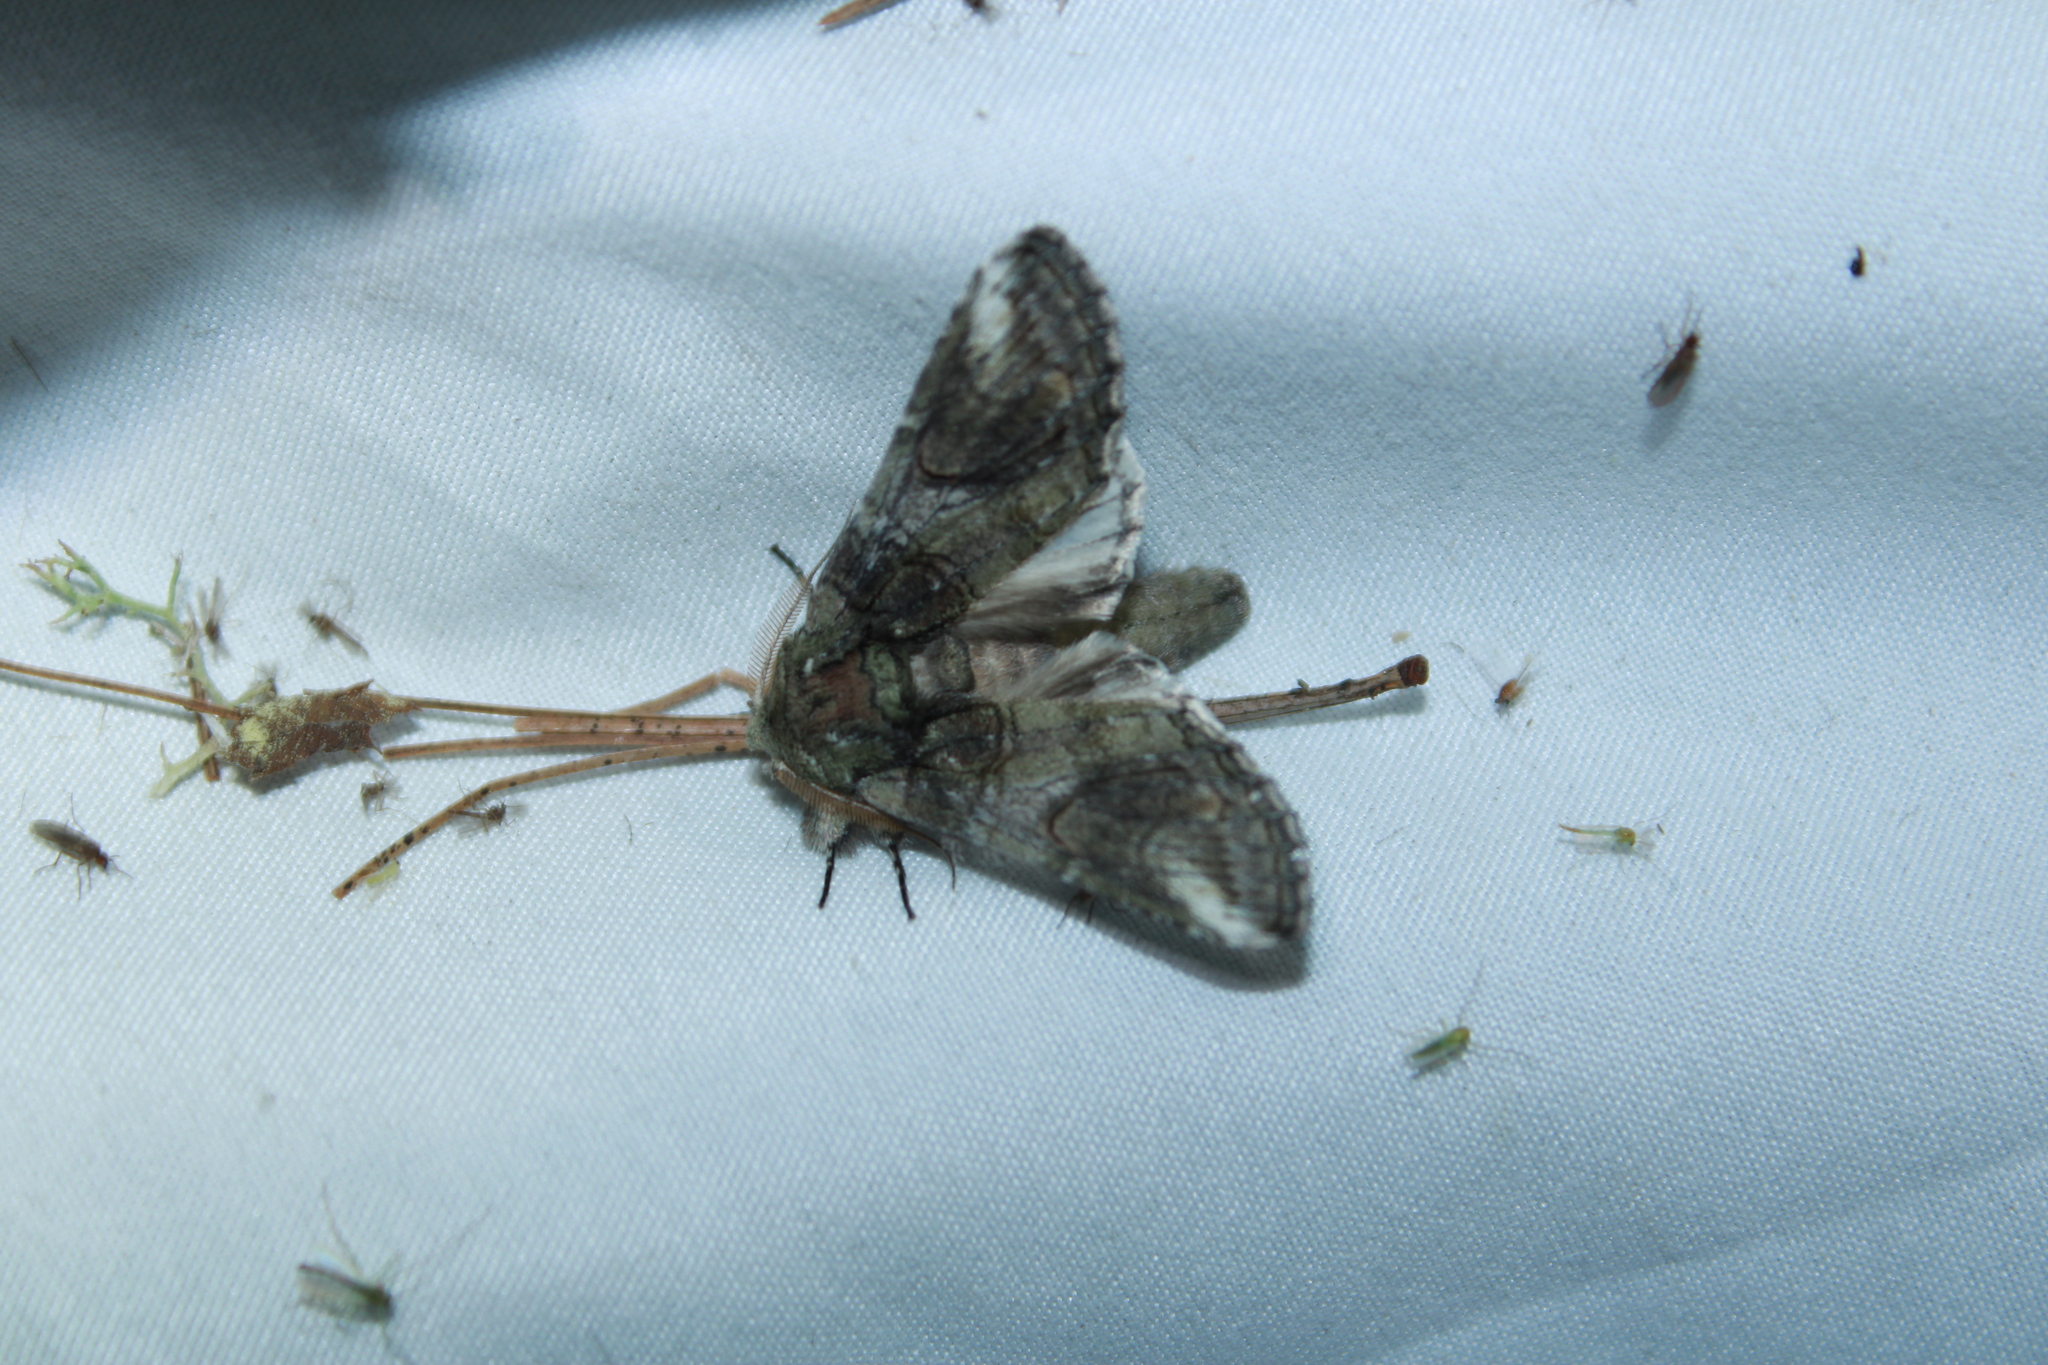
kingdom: Animalia
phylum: Arthropoda
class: Insecta
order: Lepidoptera
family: Notodontidae
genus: Heterocampa
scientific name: Heterocampa obliqua
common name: Oblique heterocampa
